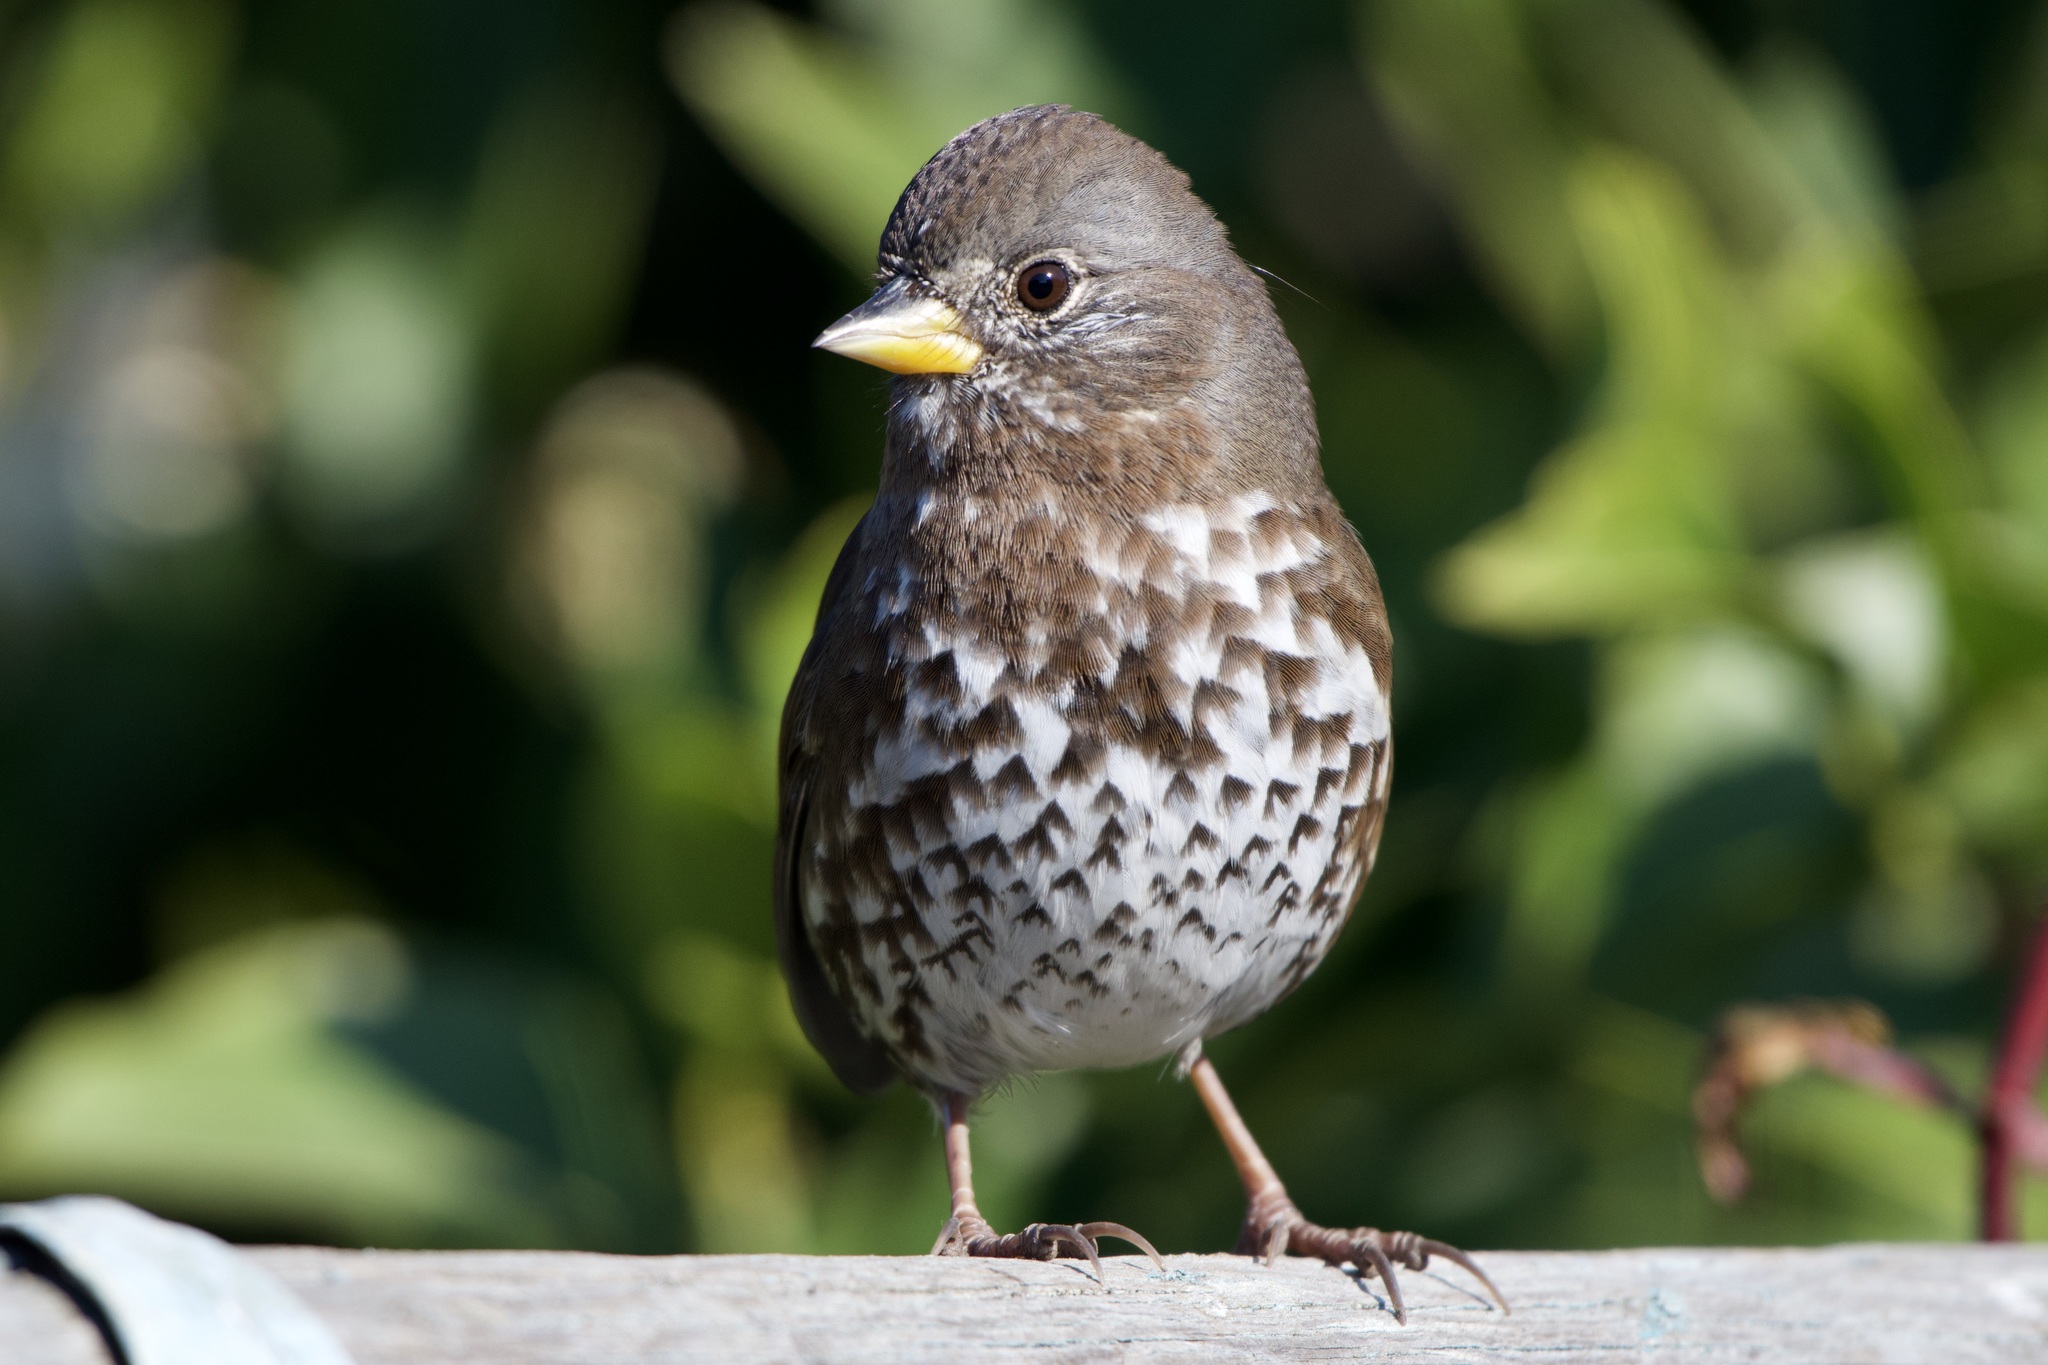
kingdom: Animalia
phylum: Chordata
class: Aves
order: Passeriformes
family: Passerellidae
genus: Passerella
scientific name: Passerella iliaca
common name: Fox sparrow
